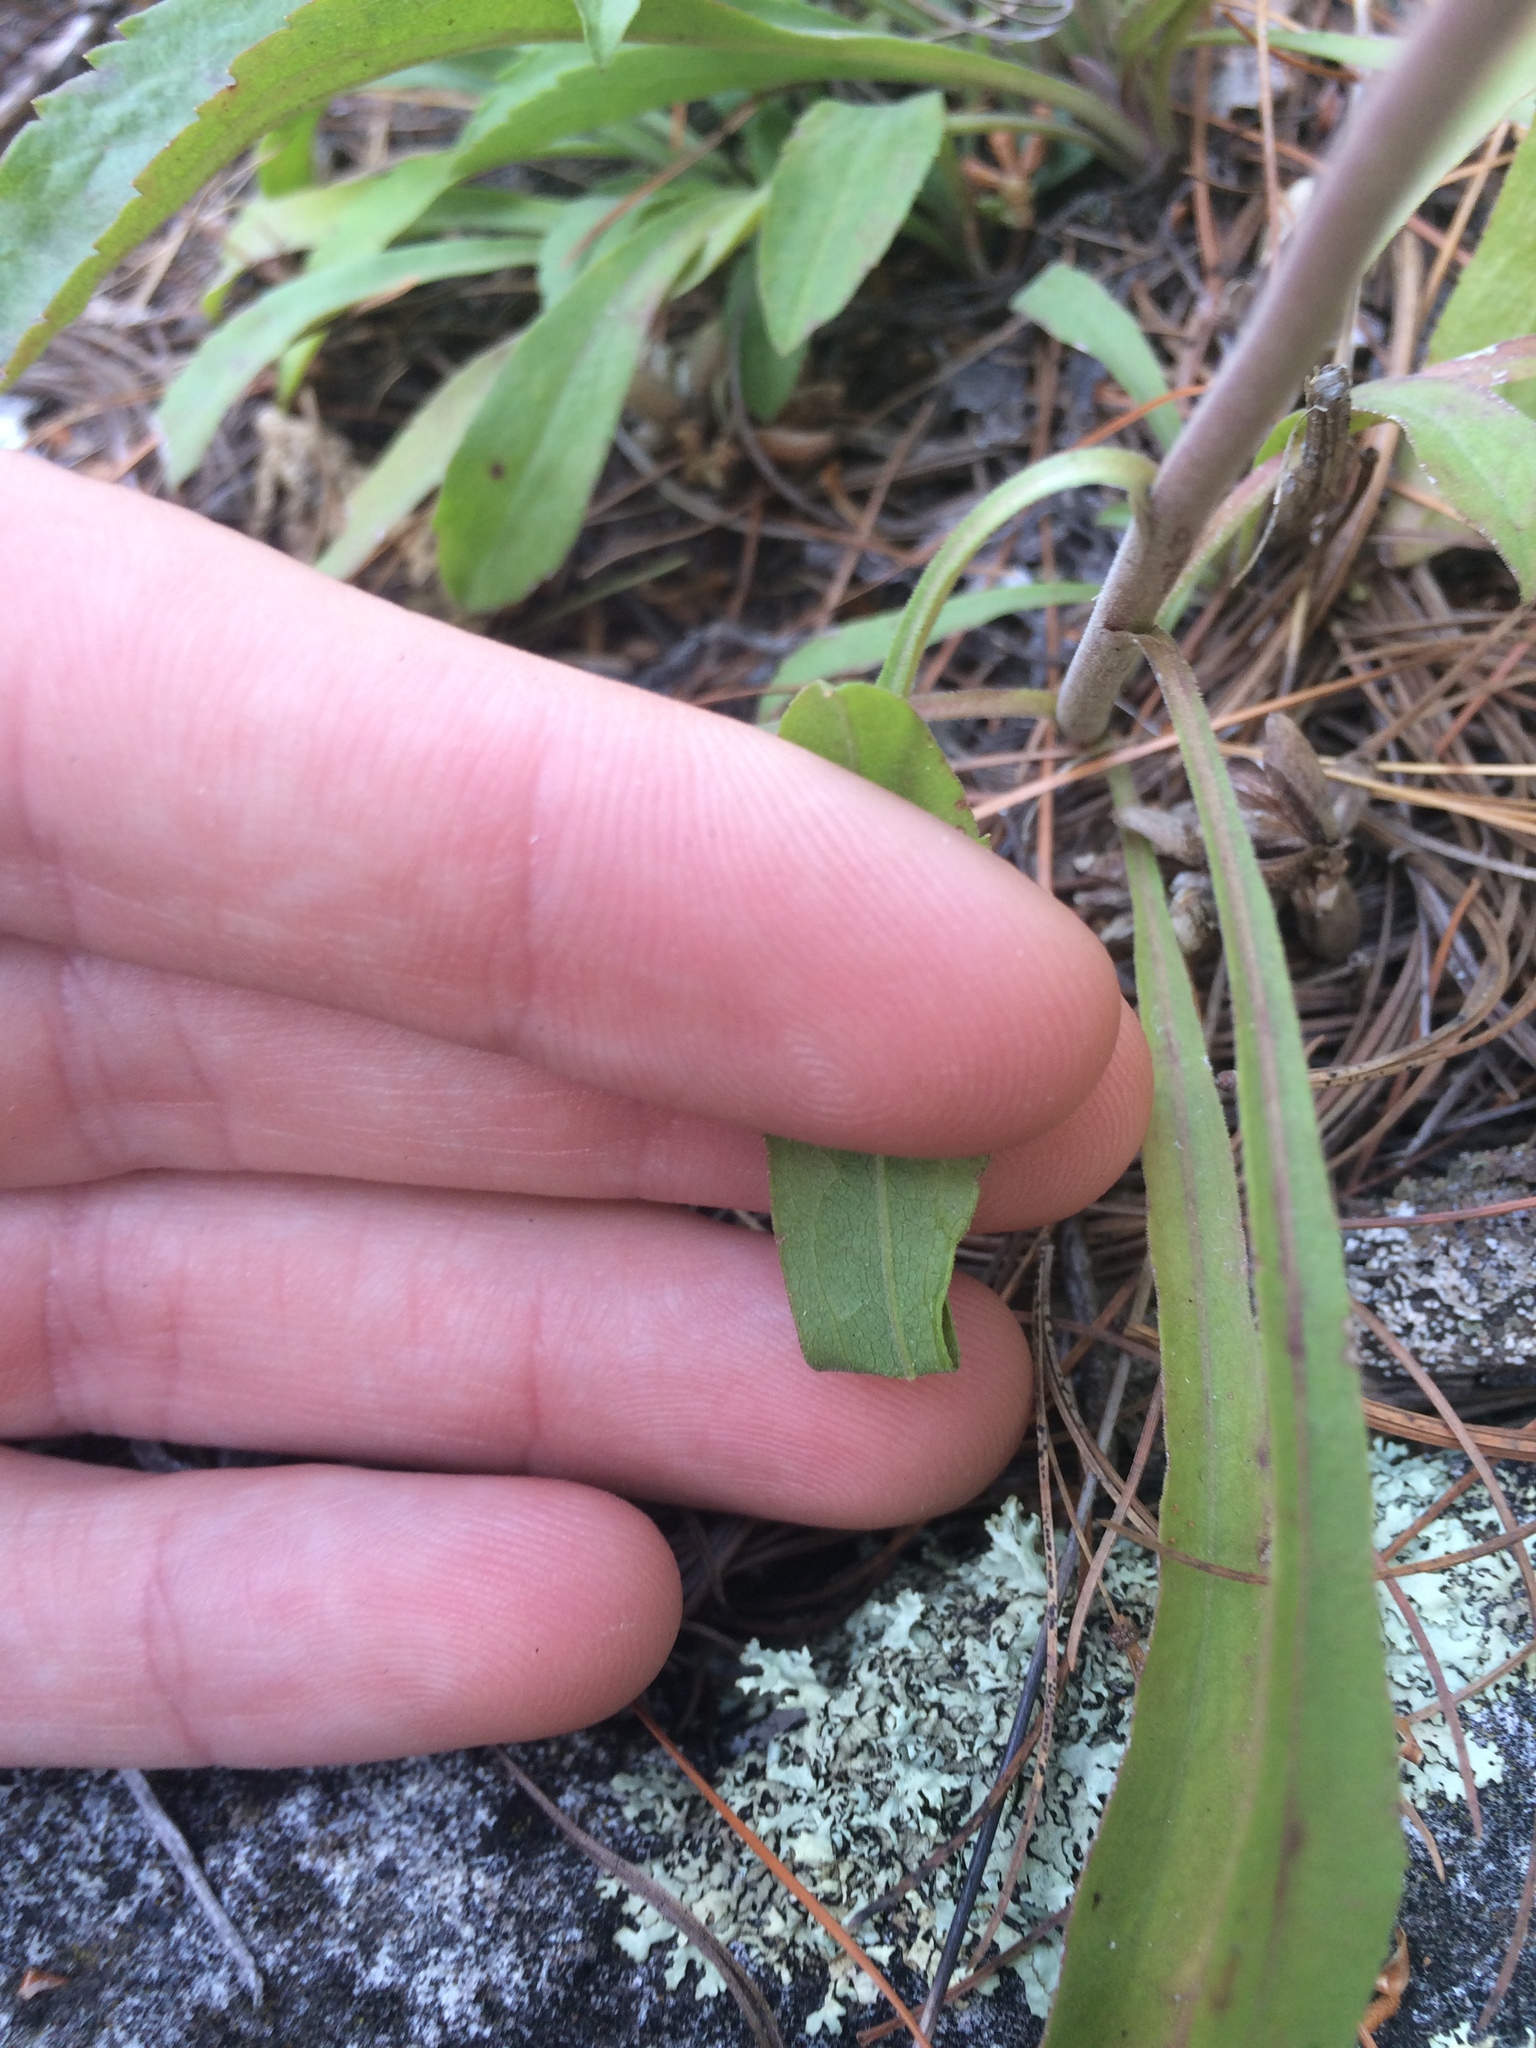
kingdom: Plantae
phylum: Tracheophyta
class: Magnoliopsida
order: Asterales
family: Asteraceae
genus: Solidago
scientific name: Solidago nemoralis
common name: Grey goldenrod
